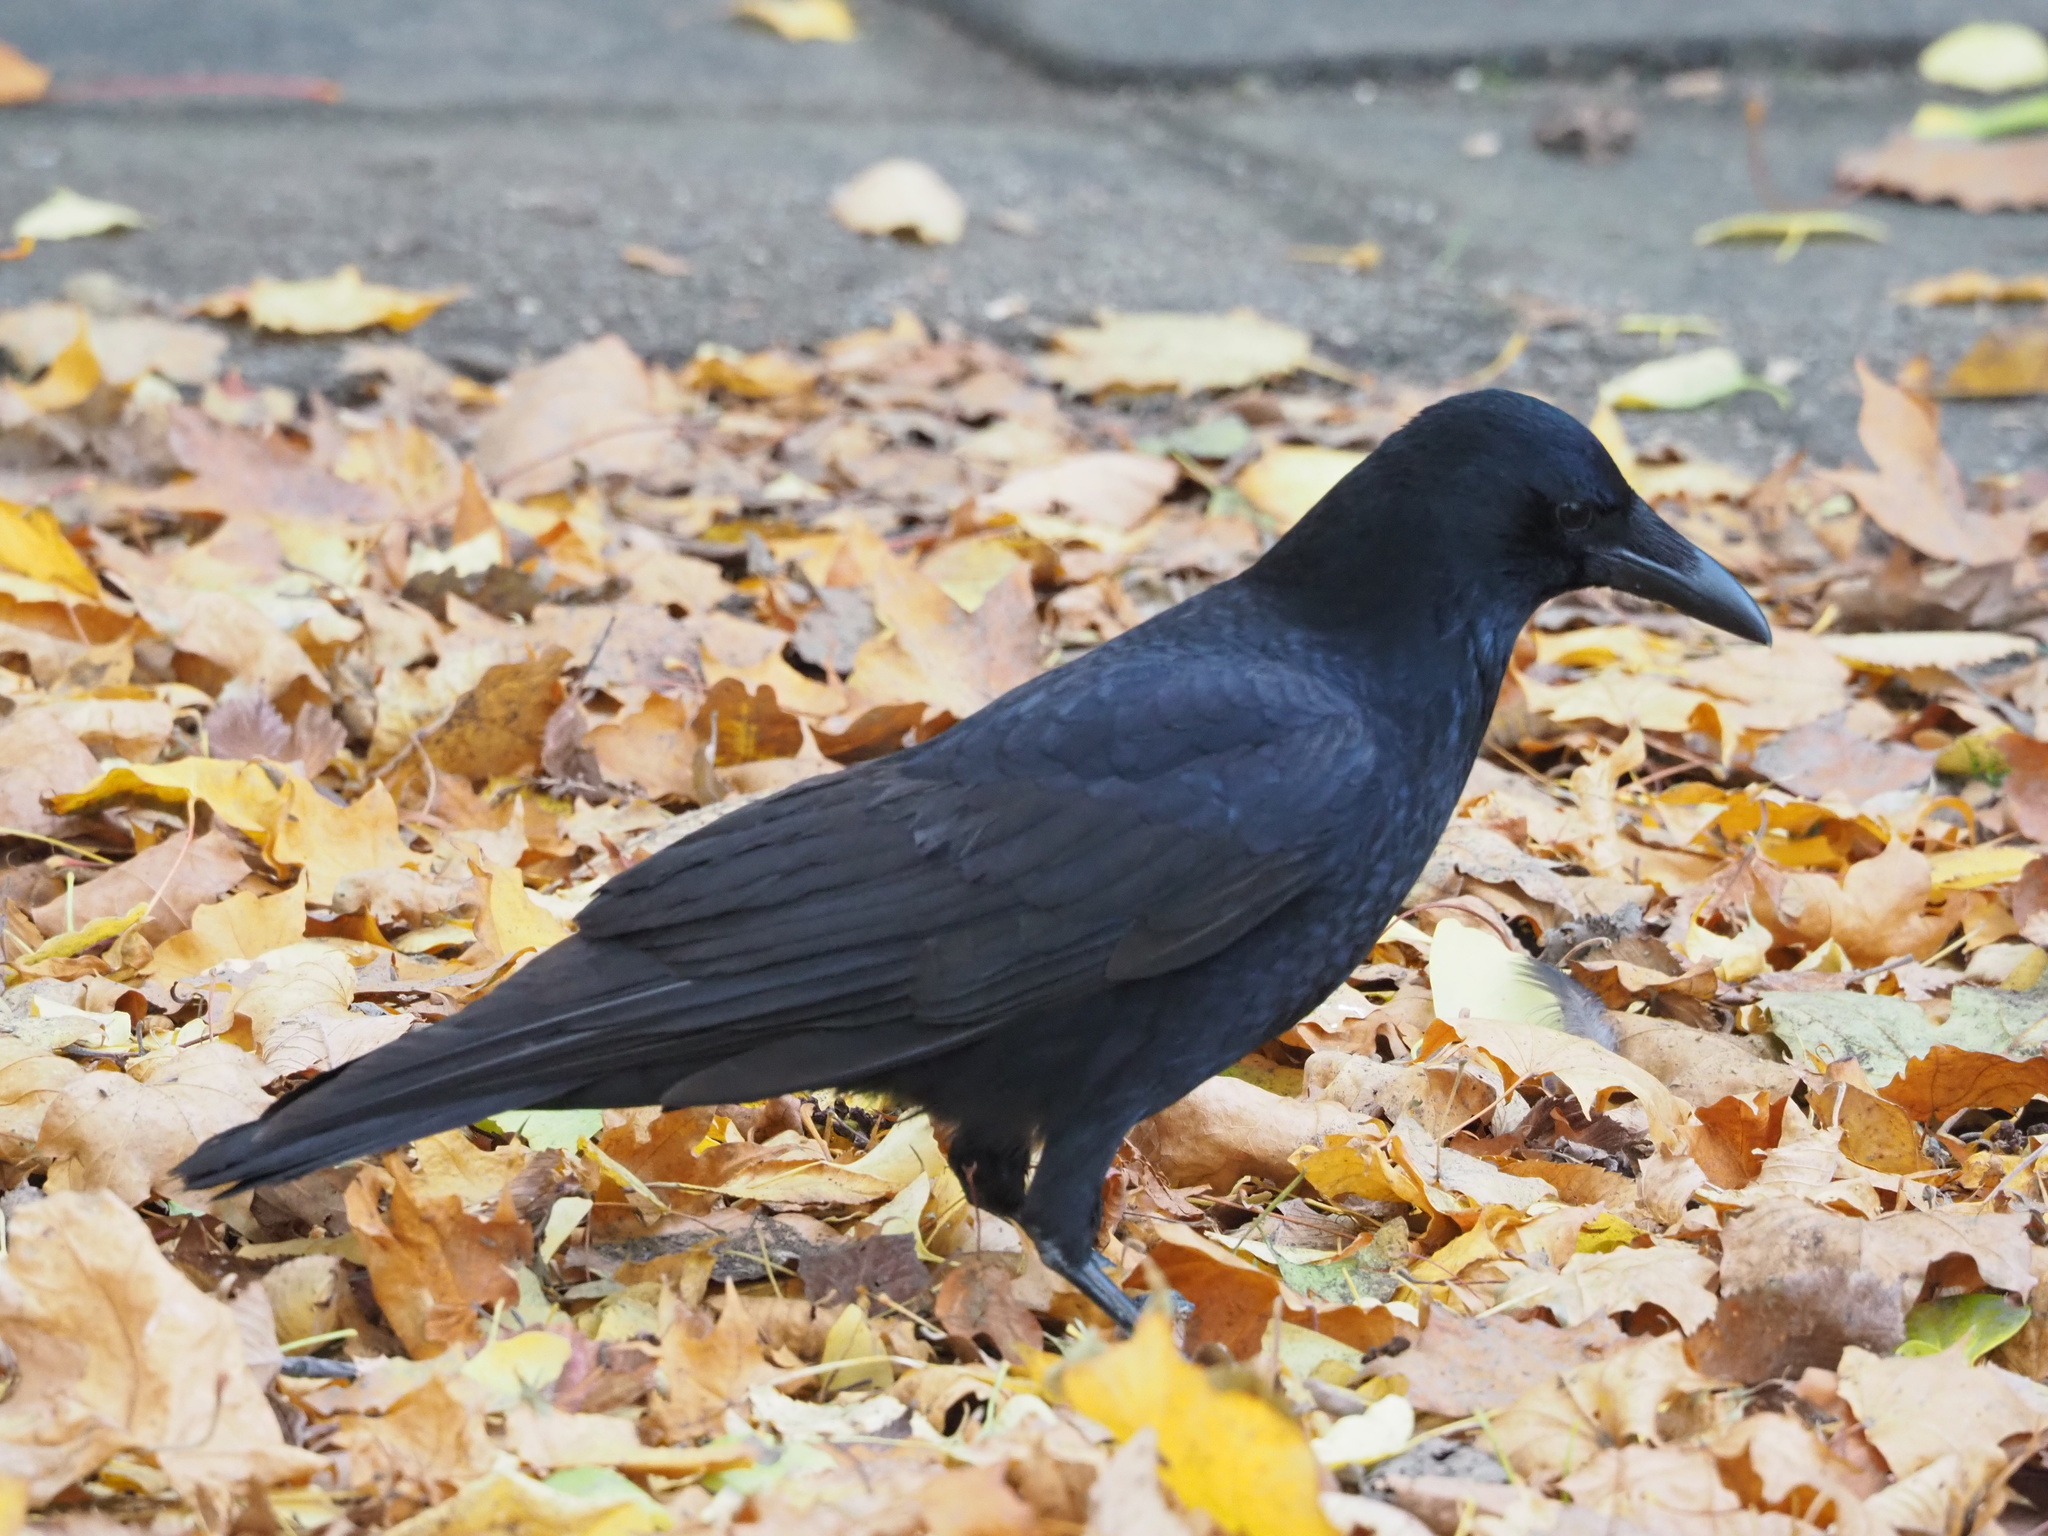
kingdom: Animalia
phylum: Chordata
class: Aves
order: Passeriformes
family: Corvidae
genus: Corvus
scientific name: Corvus corone
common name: Carrion crow
